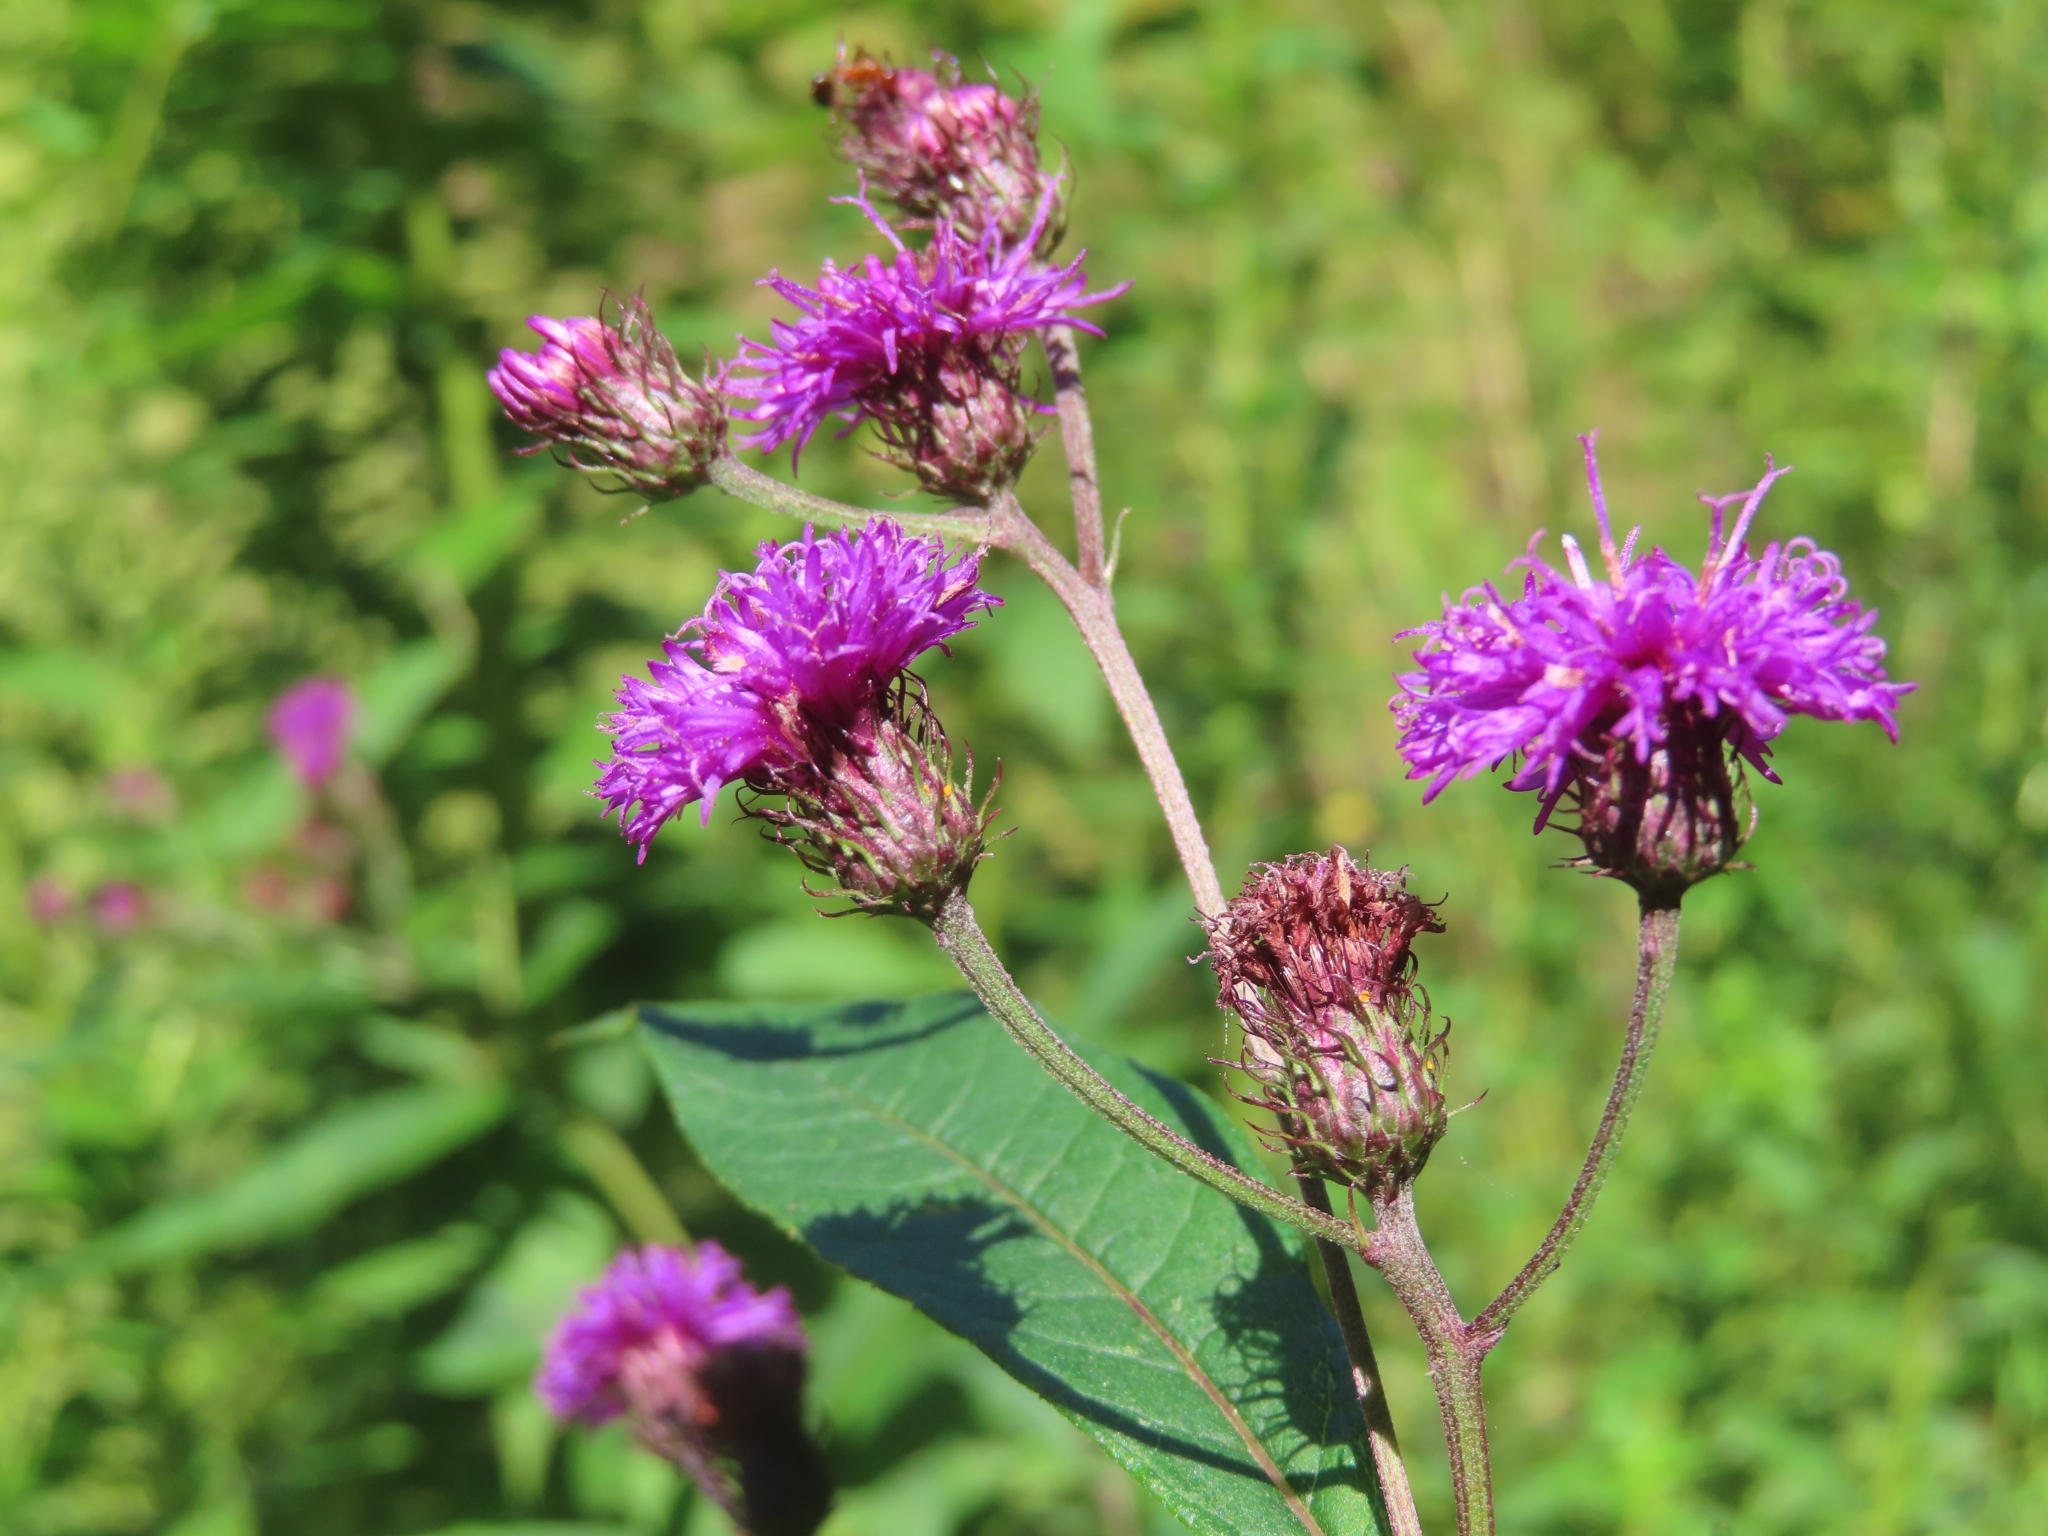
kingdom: Plantae
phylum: Tracheophyta
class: Magnoliopsida
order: Asterales
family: Asteraceae
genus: Vernonia
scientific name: Vernonia noveboracensis
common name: New york ironweed
